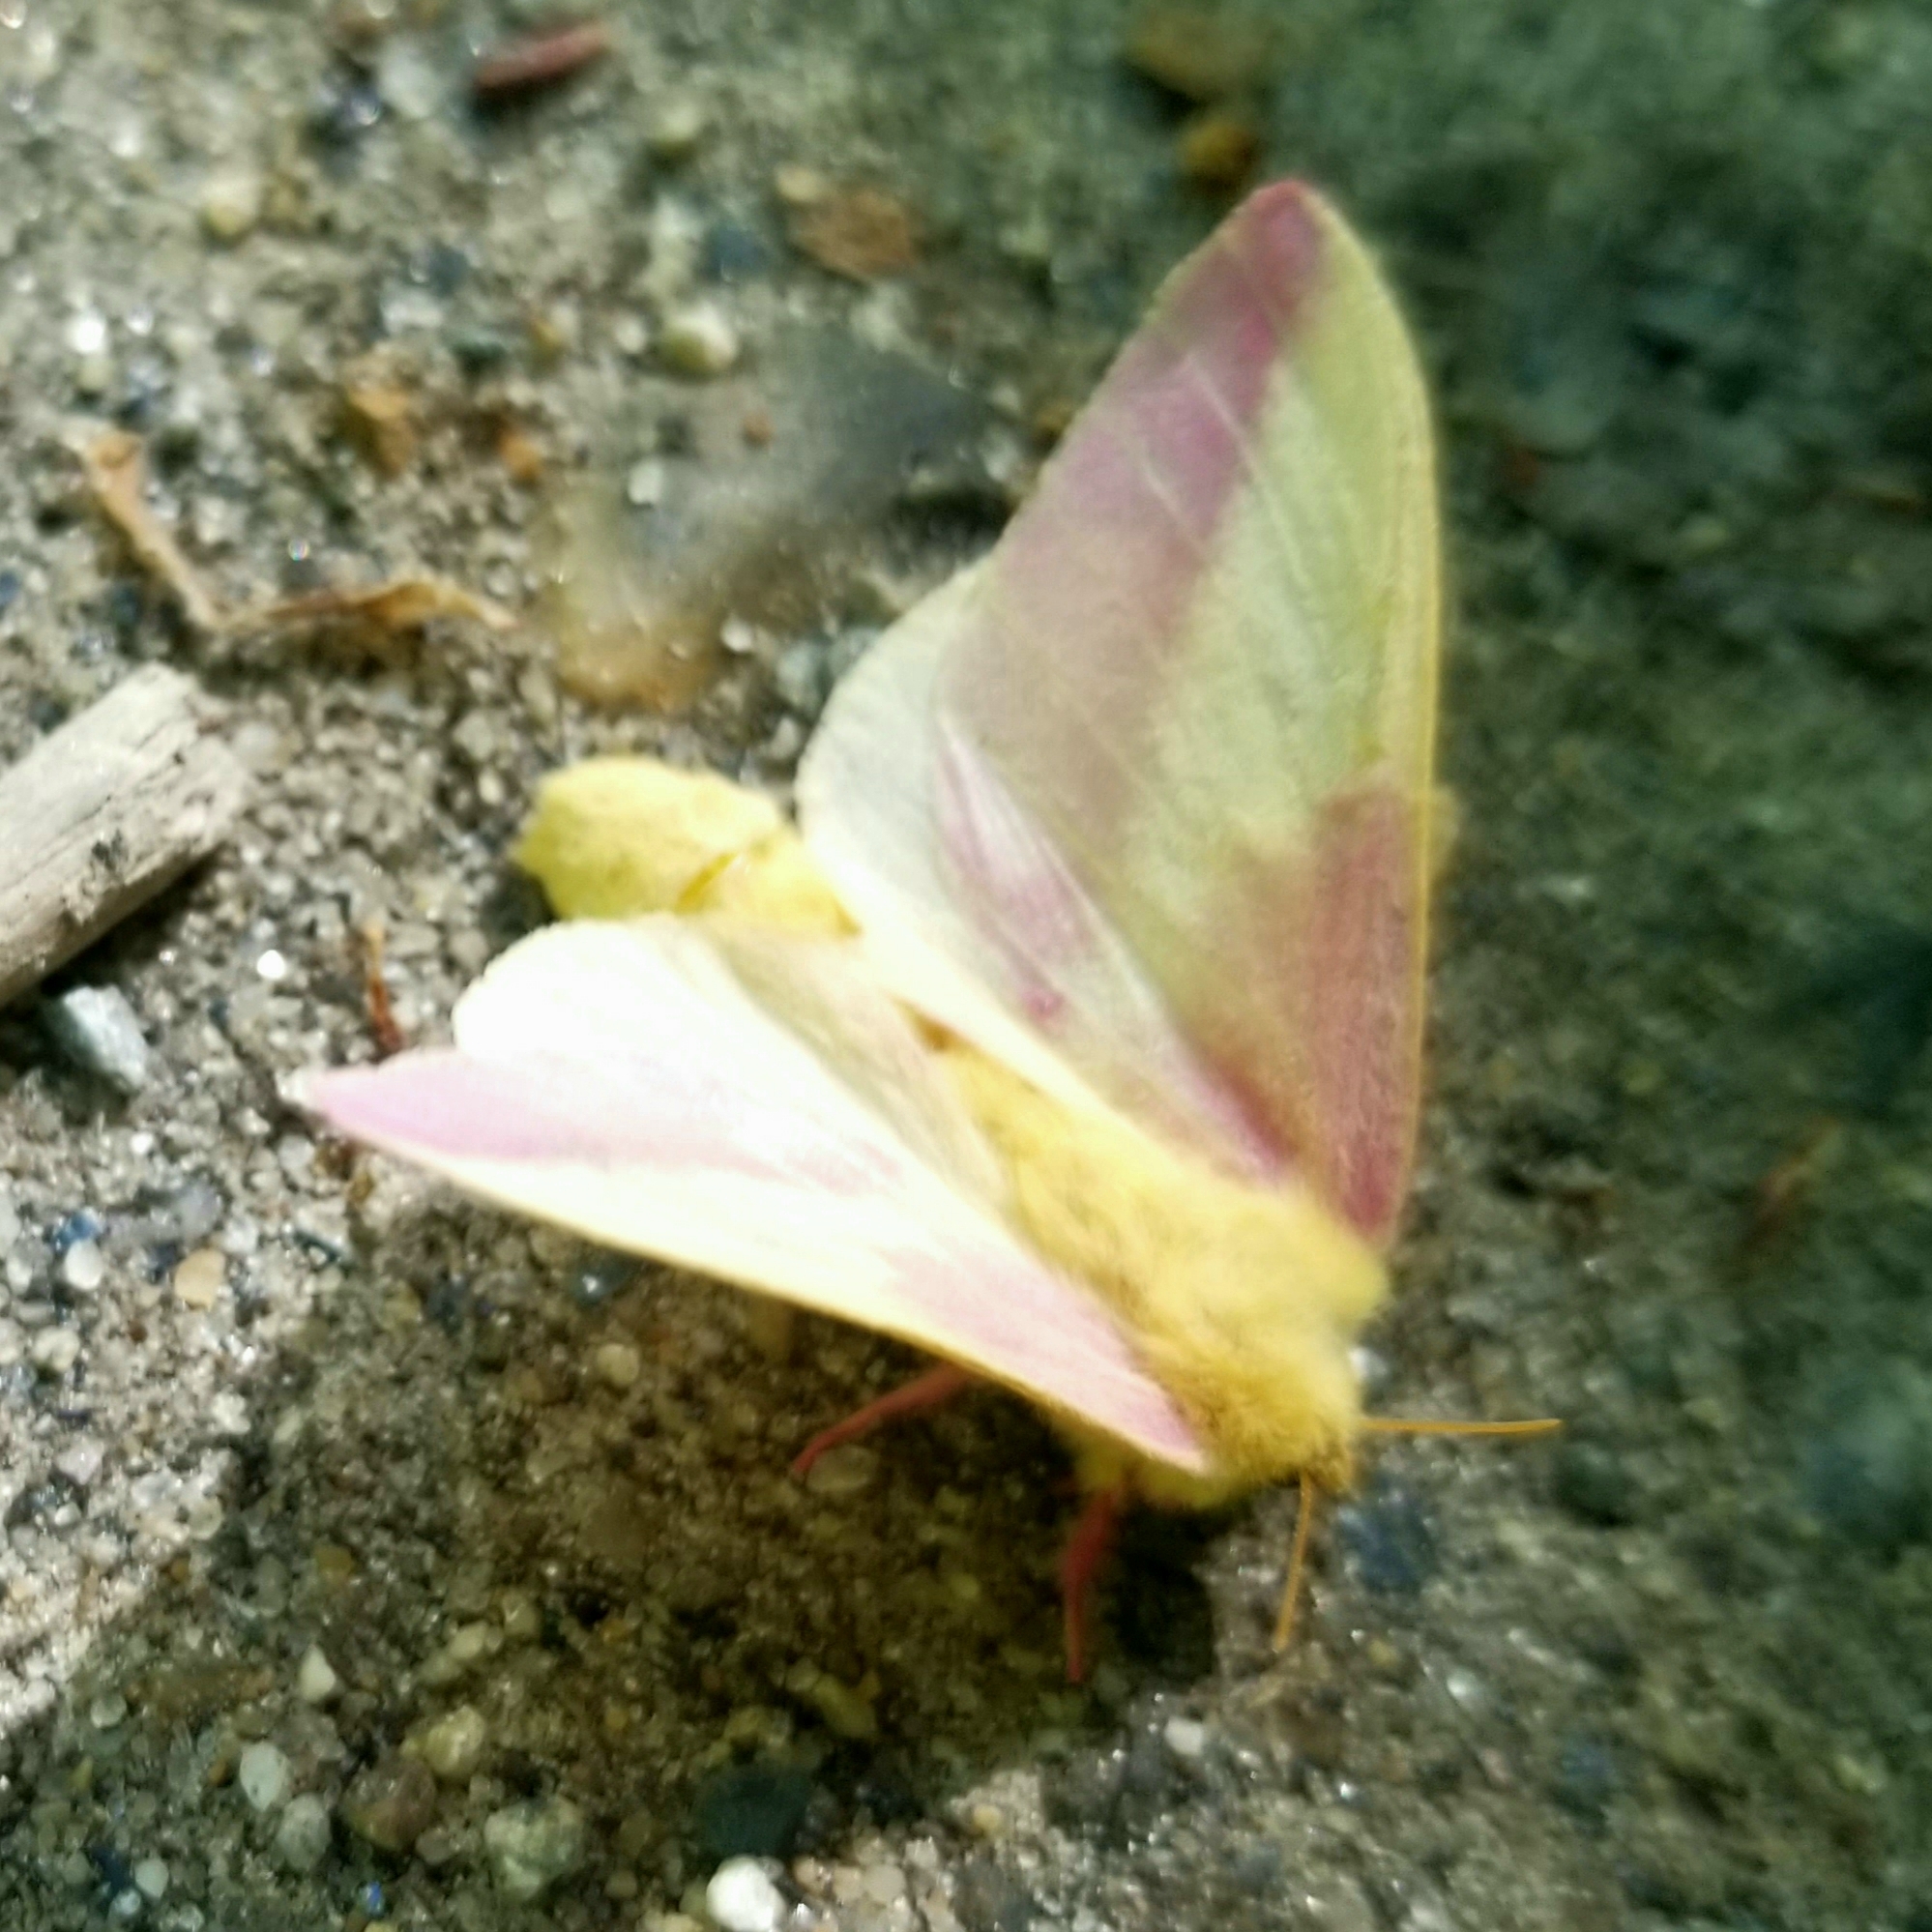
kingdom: Animalia
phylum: Arthropoda
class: Insecta
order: Lepidoptera
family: Saturniidae
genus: Dryocampa
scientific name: Dryocampa rubicunda
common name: Rosy maple moth
